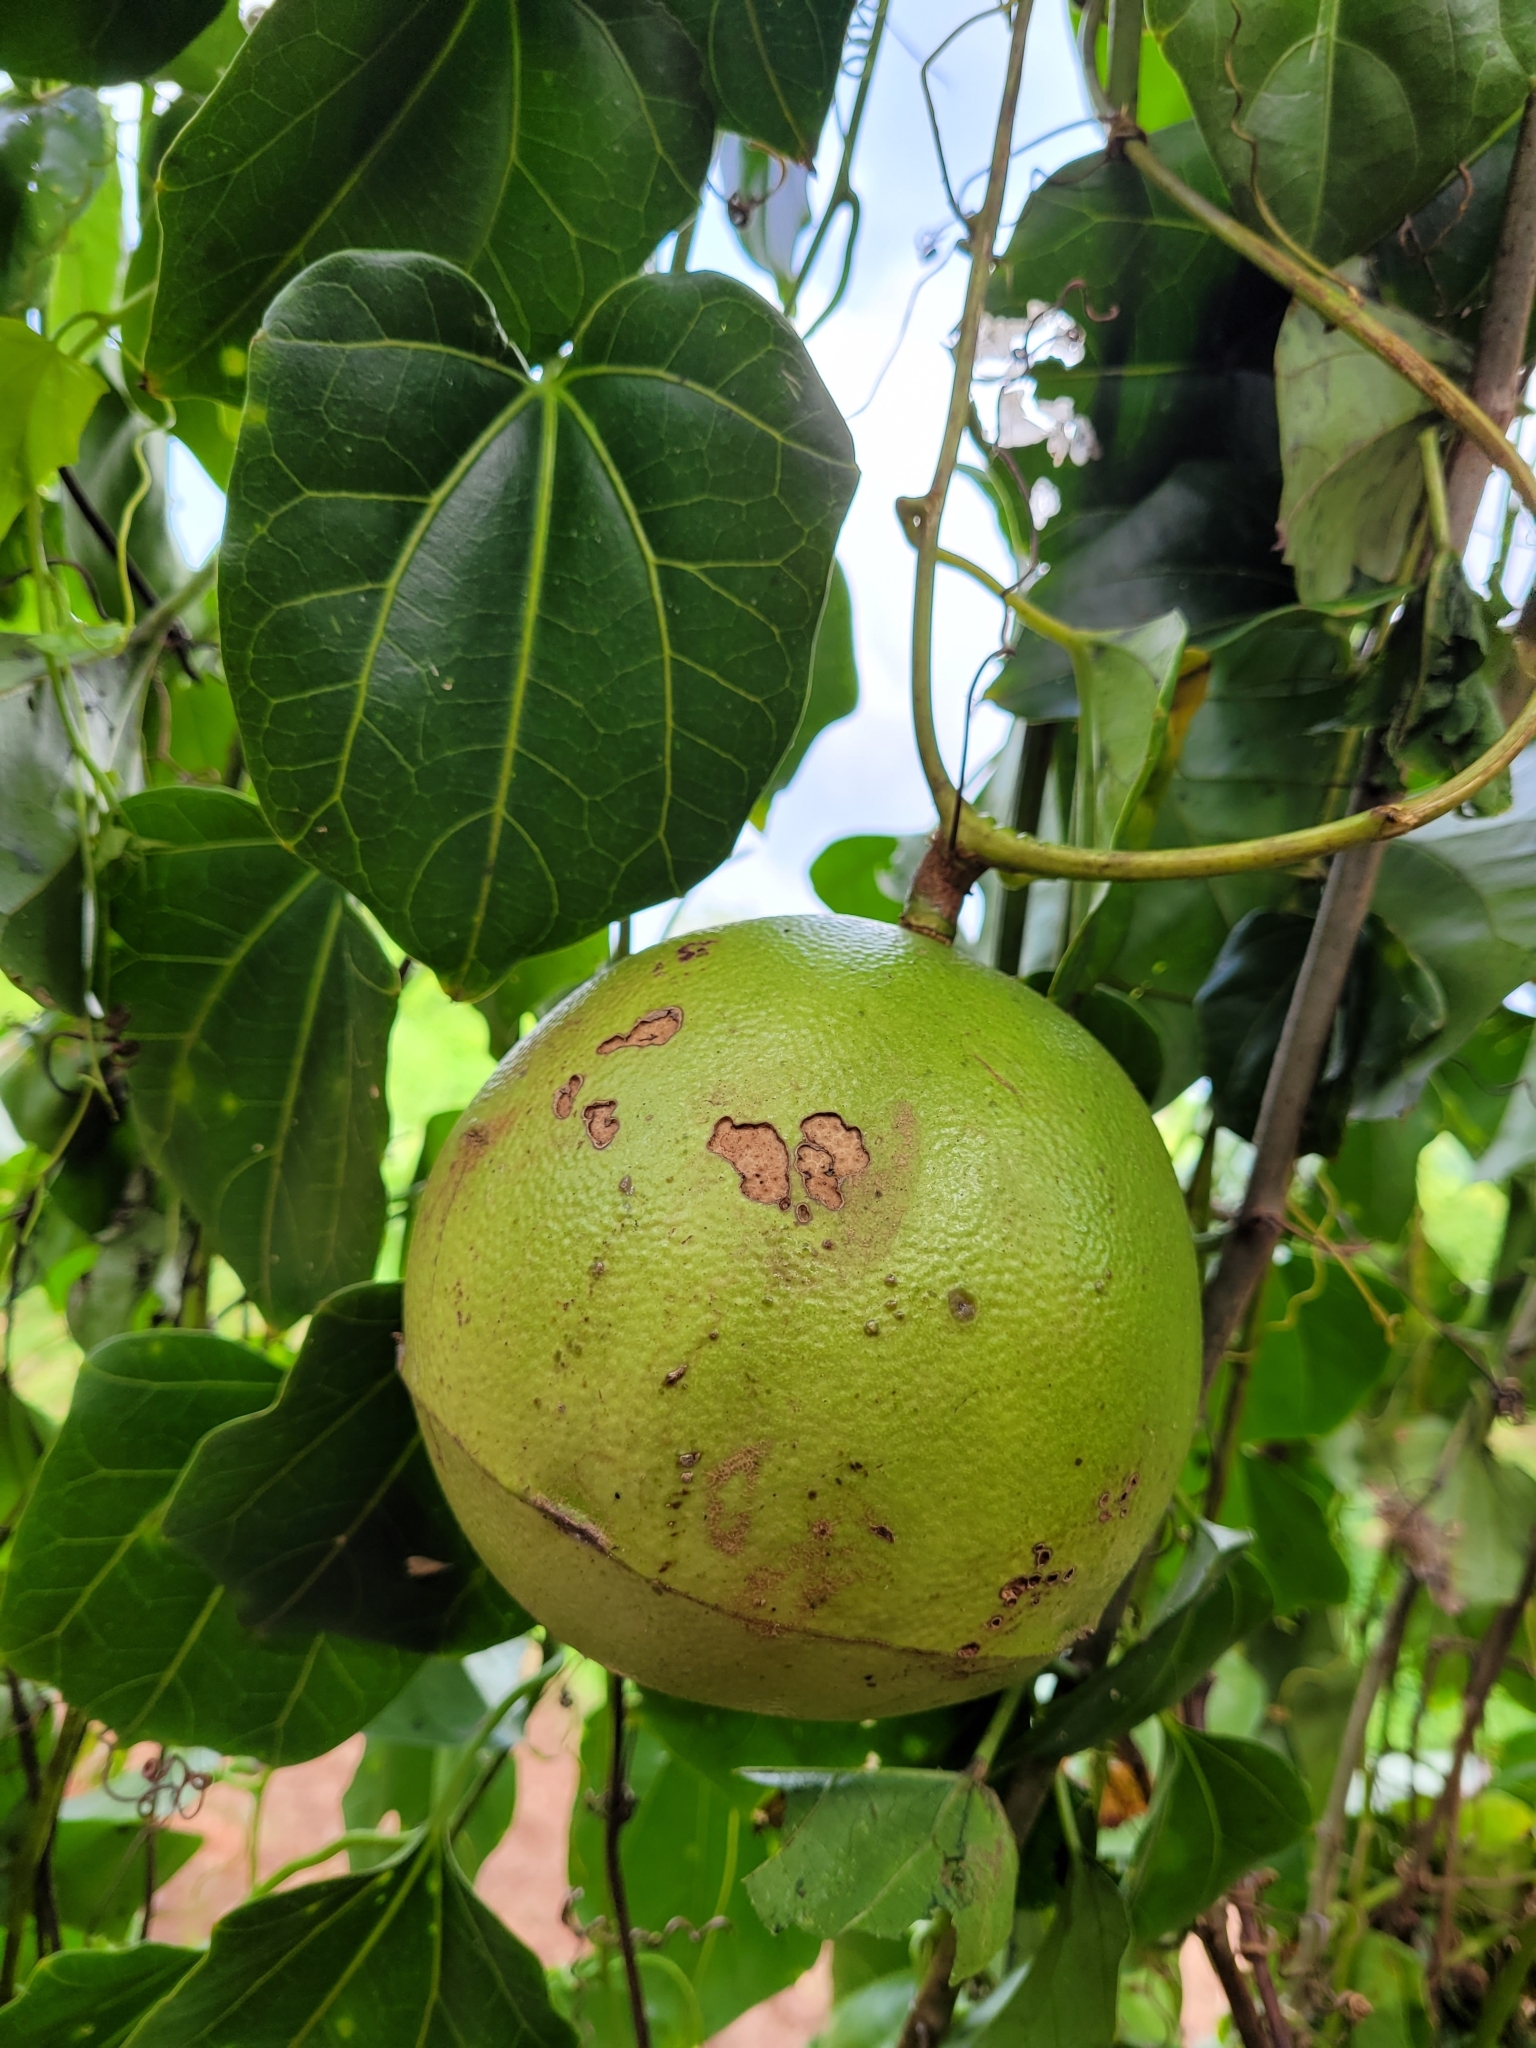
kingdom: Plantae
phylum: Tracheophyta
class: Magnoliopsida
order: Cucurbitales
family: Cucurbitaceae
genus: Fevillea
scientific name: Fevillea cordifolia
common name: Antidote-vine
